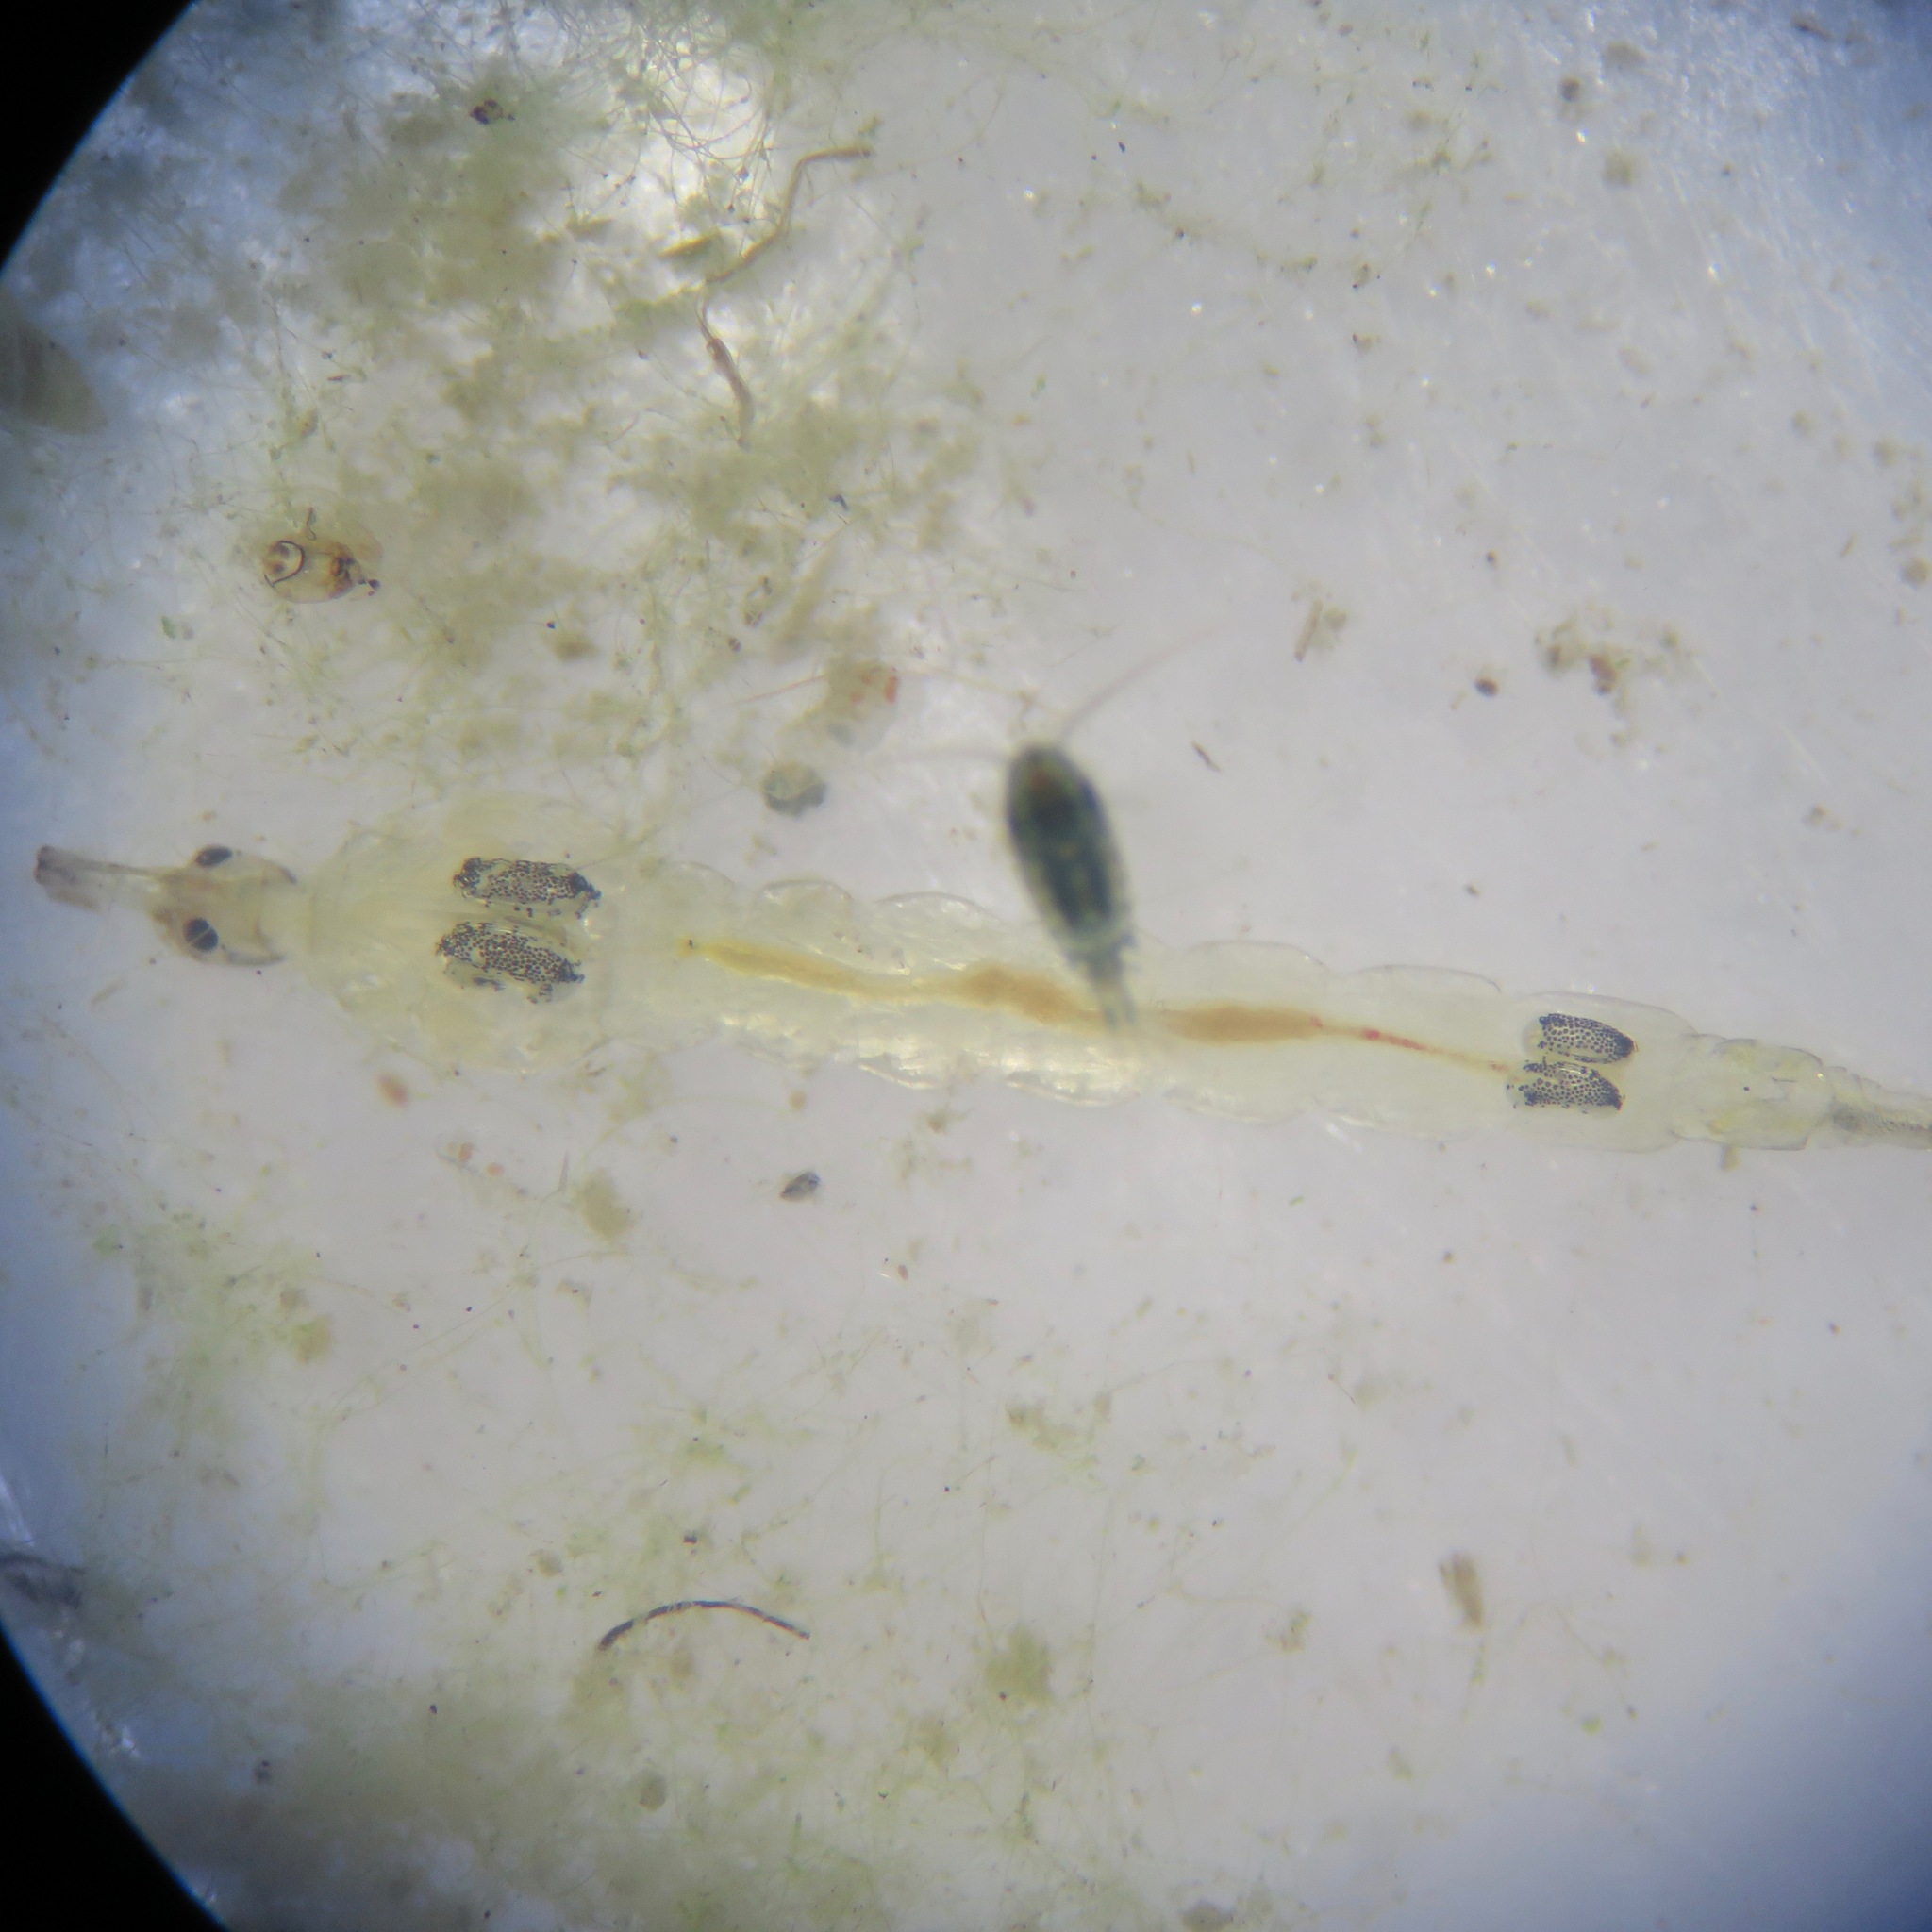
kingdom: Animalia
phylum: Arthropoda
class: Insecta
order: Diptera
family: Chaoboridae
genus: Chaoborus
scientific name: Chaoborus
